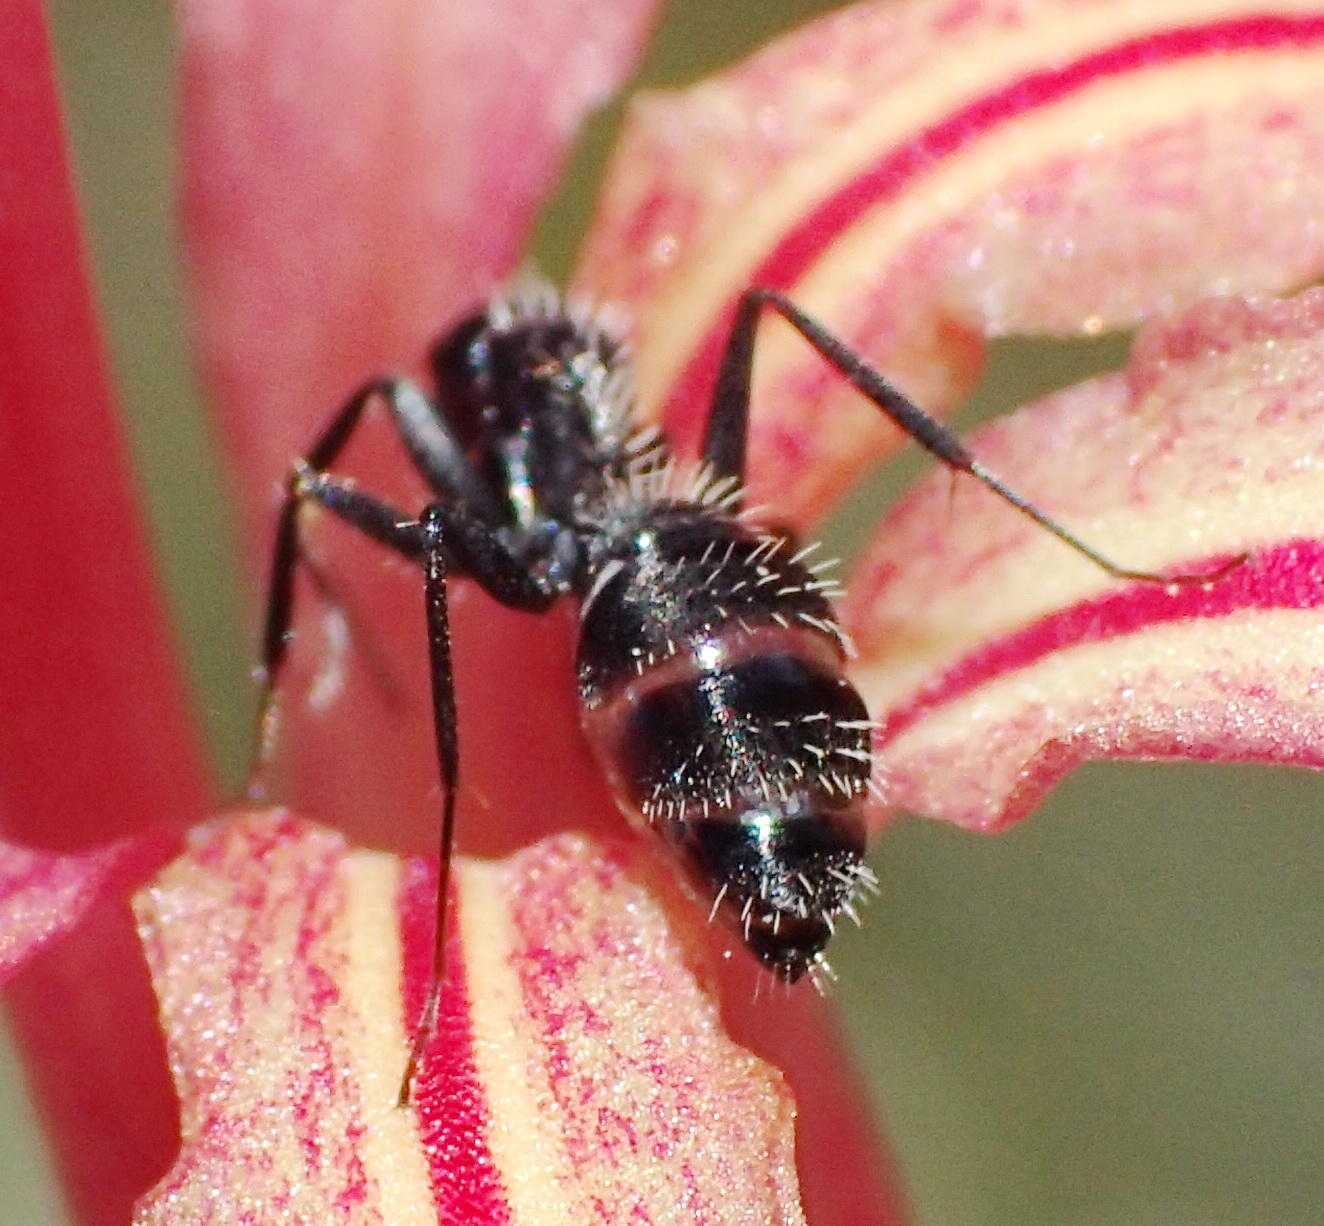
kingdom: Animalia
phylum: Arthropoda
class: Insecta
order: Hymenoptera
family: Formicidae
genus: Camponotus
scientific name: Camponotus niveosetosus
